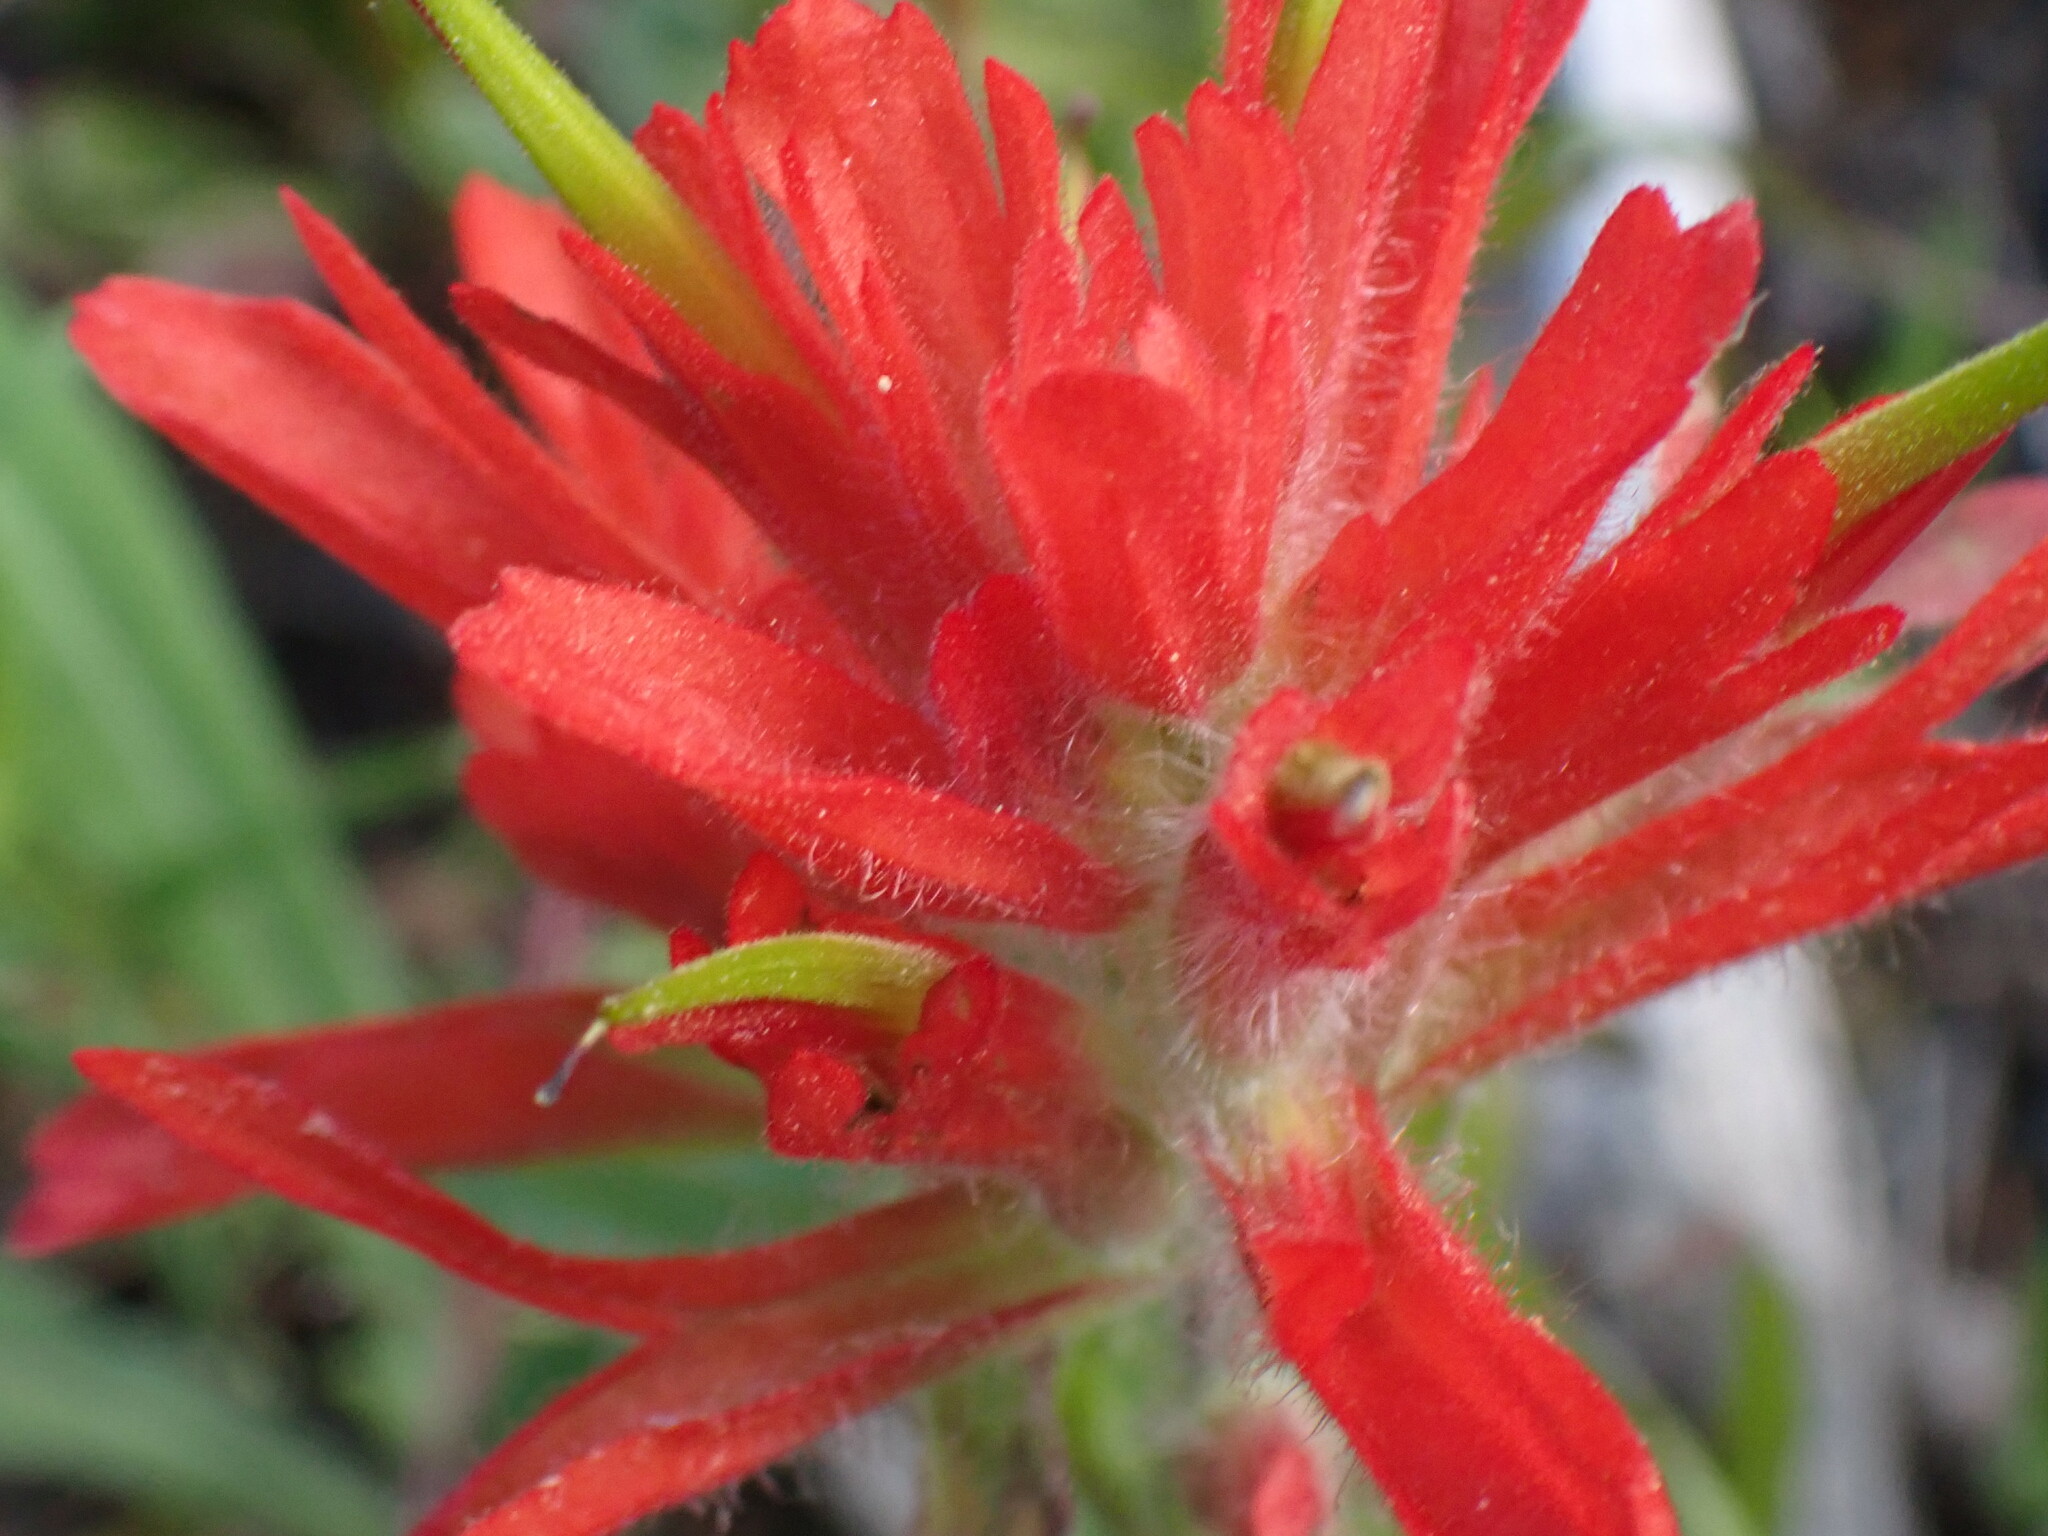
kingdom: Plantae
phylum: Tracheophyta
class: Magnoliopsida
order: Lamiales
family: Orobanchaceae
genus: Castilleja
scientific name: Castilleja miniata
